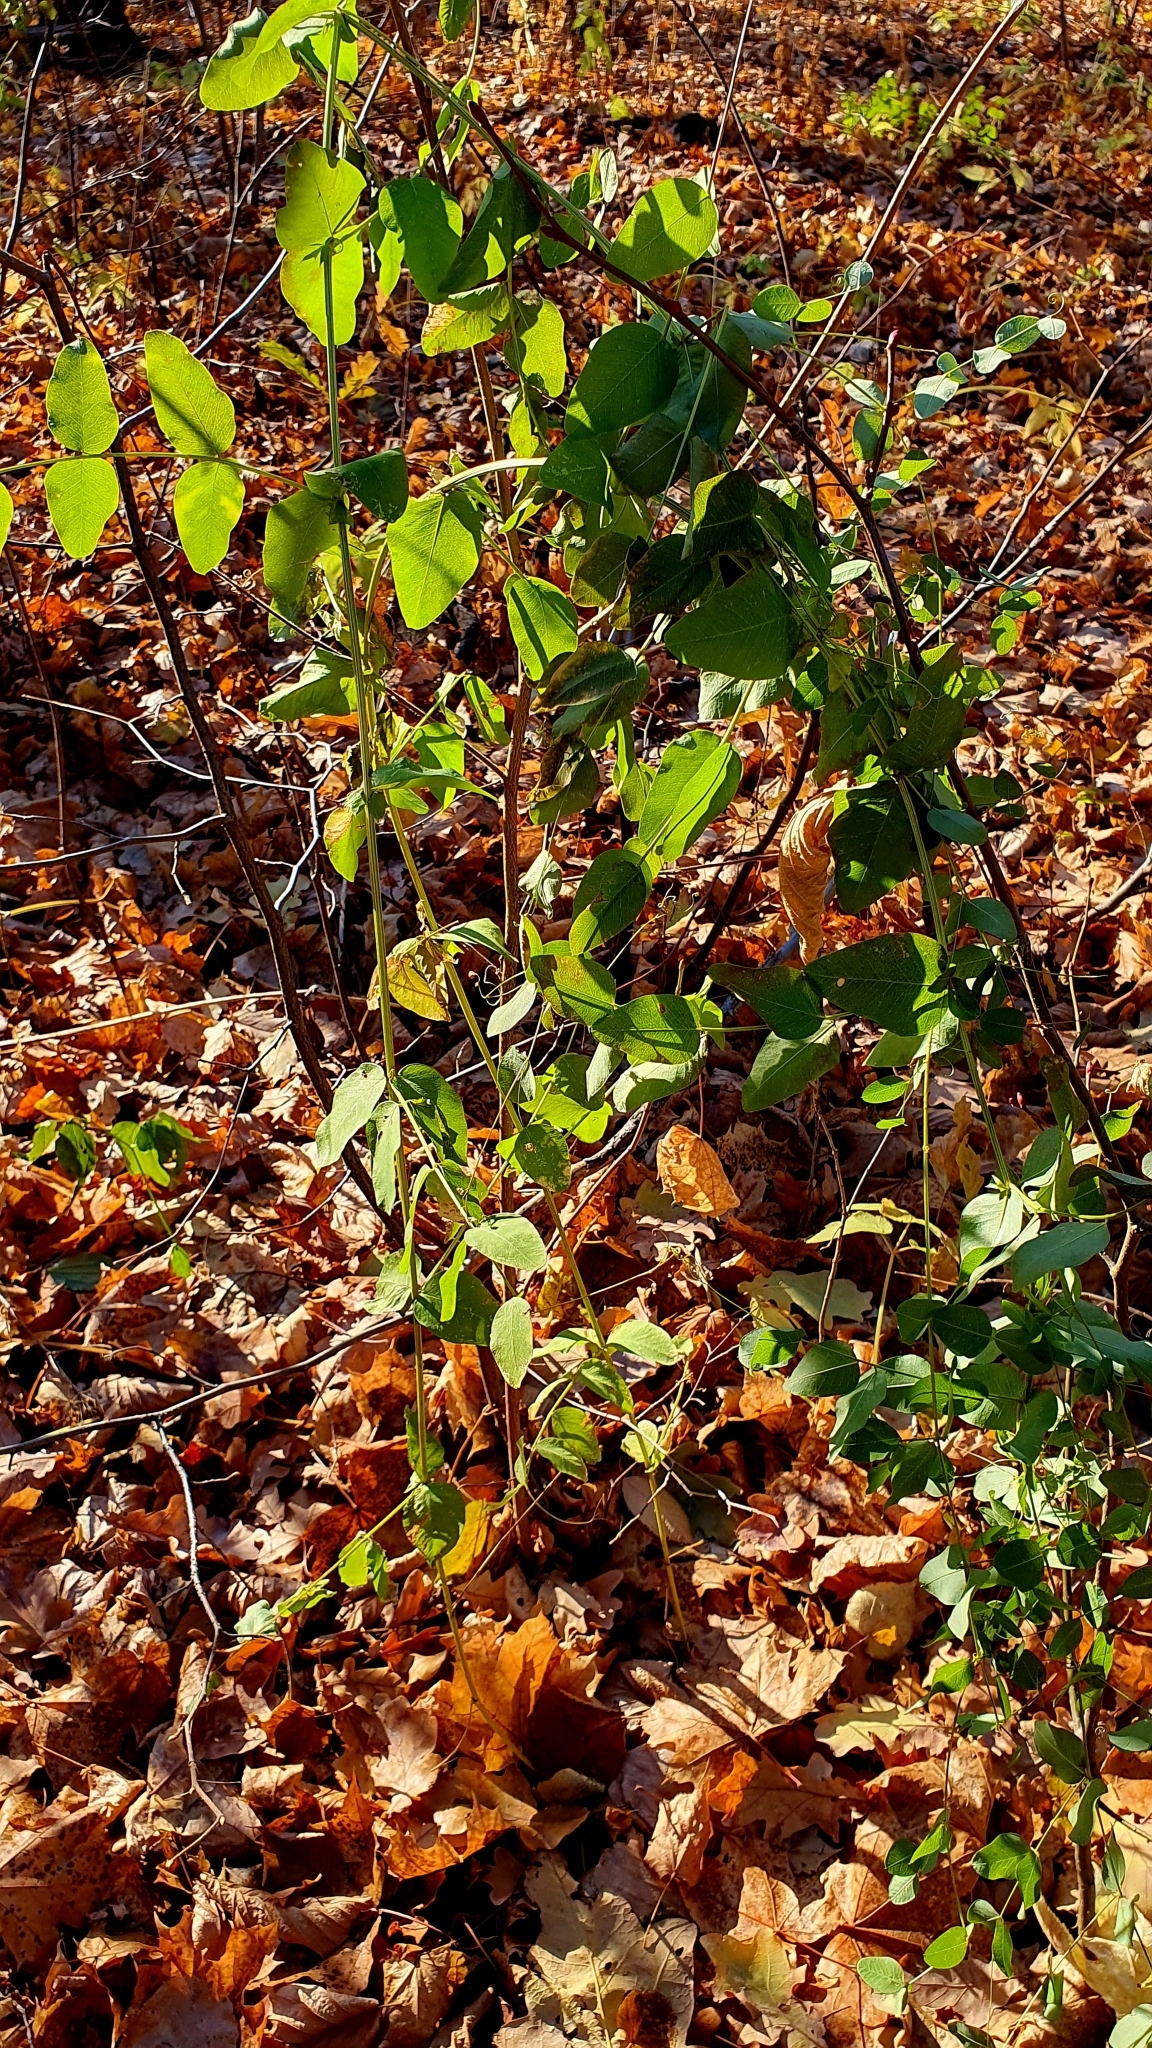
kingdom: Plantae
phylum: Tracheophyta
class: Magnoliopsida
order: Fabales
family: Fabaceae
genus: Vicia
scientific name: Vicia pisiformis
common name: Pale-flower vetch
